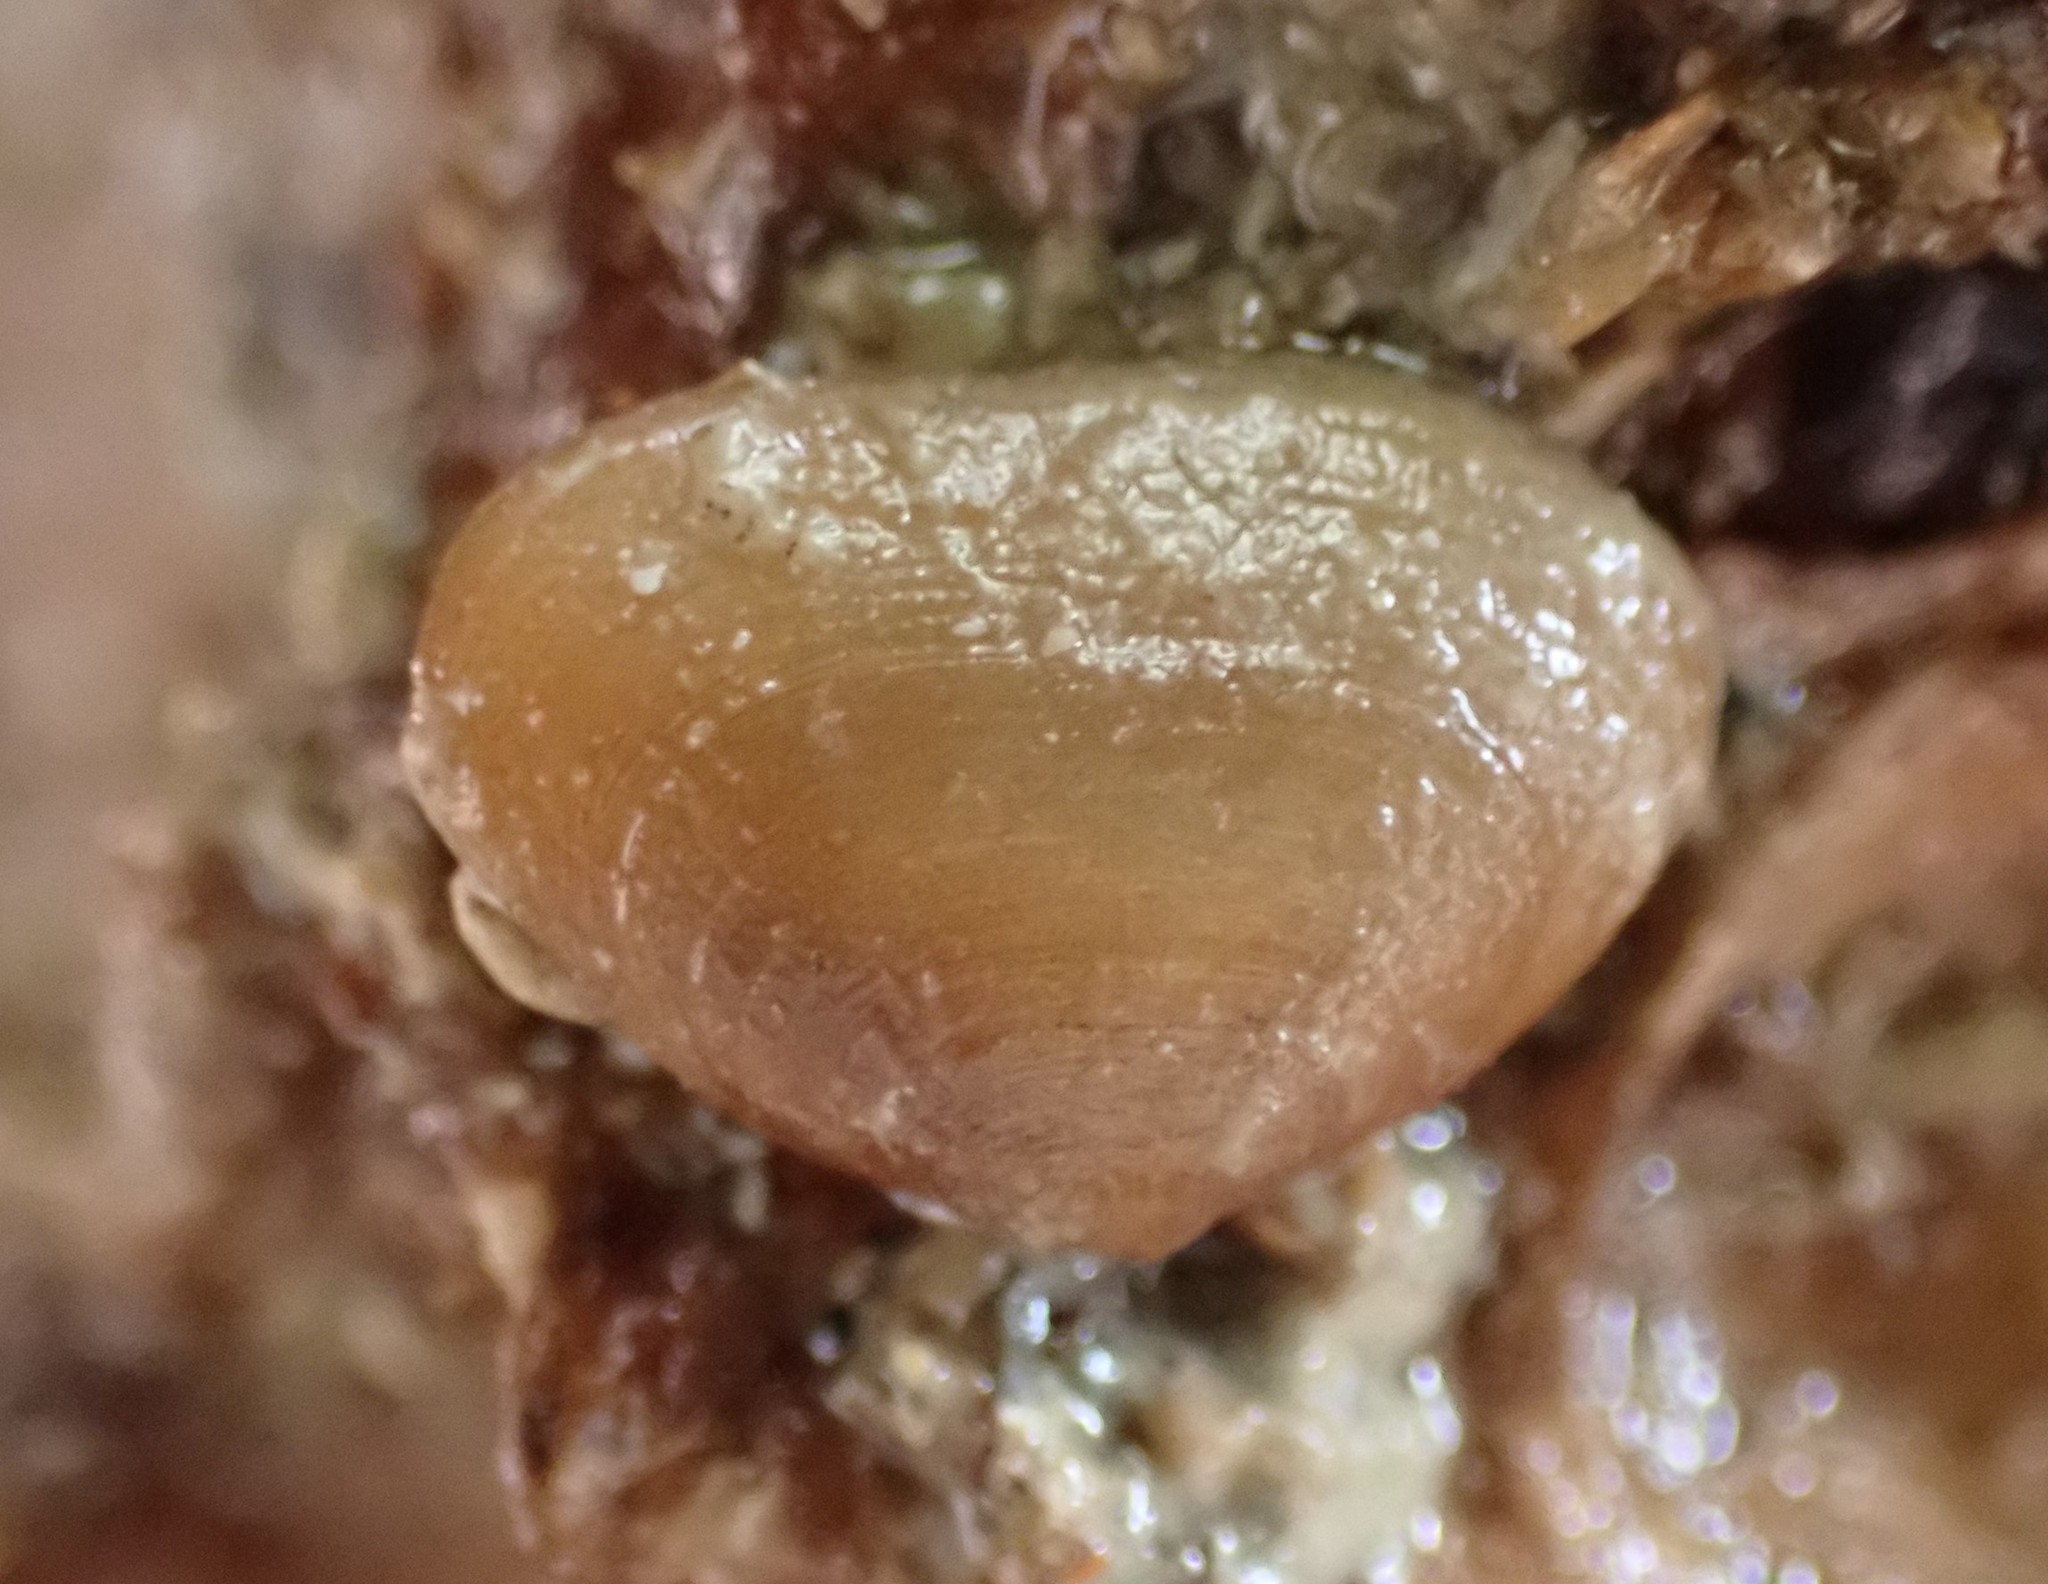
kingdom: Animalia
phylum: Mollusca
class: Bivalvia
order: Galeommatida
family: Lasaeidae
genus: Borniola
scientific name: Borniola reniformis
